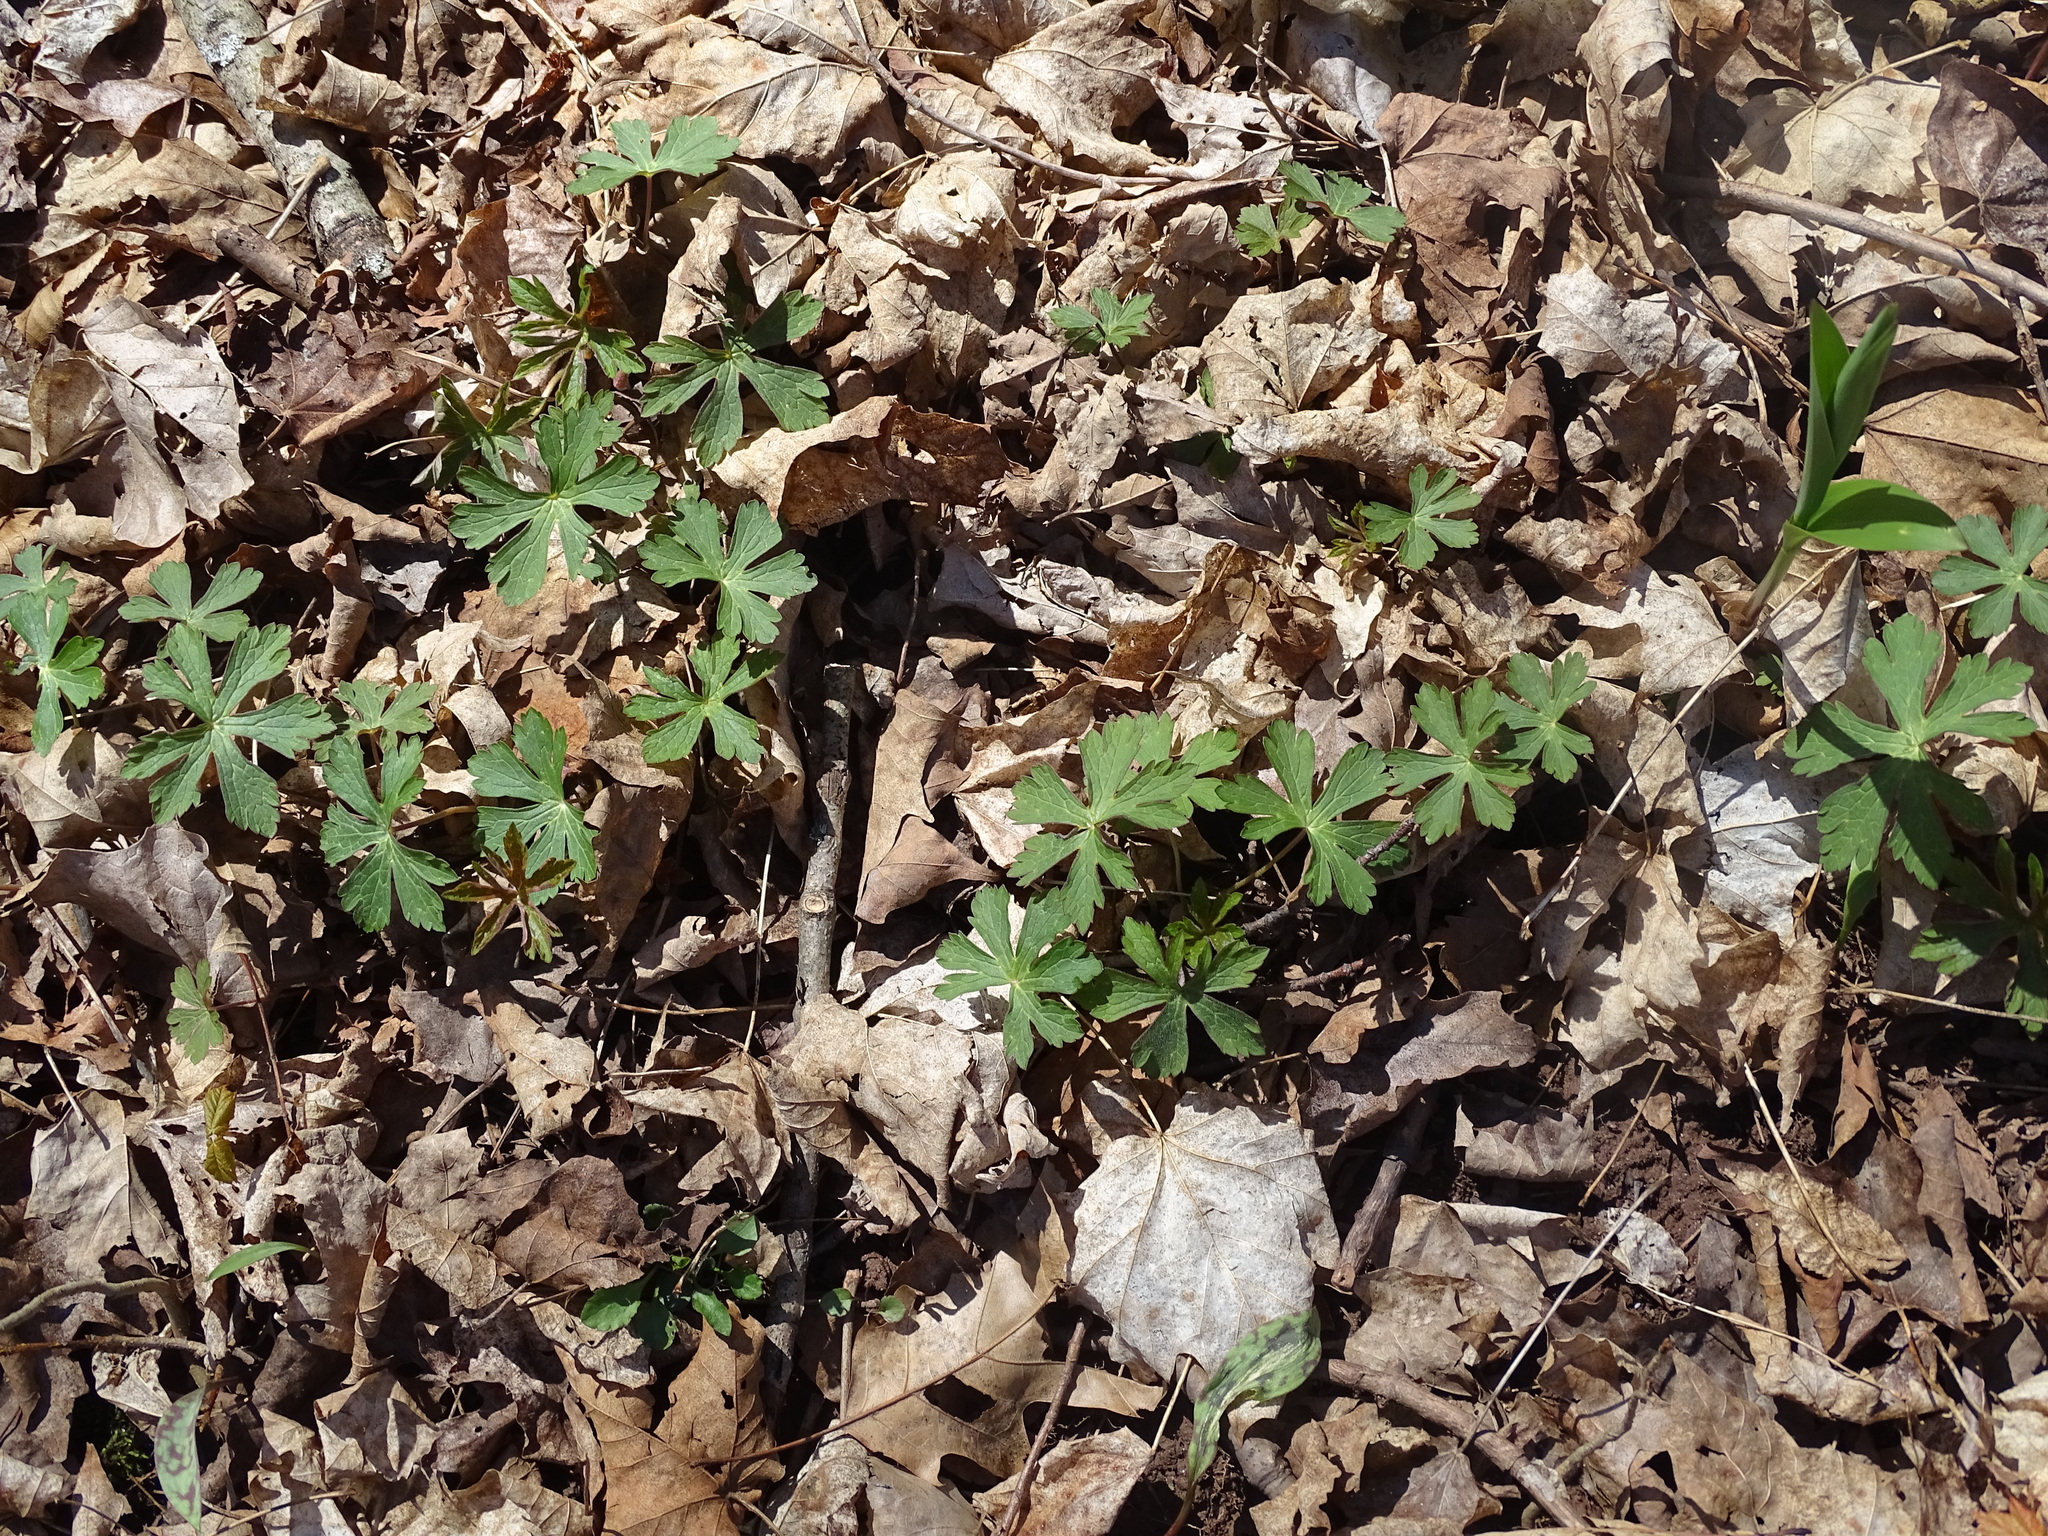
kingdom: Plantae
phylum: Tracheophyta
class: Magnoliopsida
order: Geraniales
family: Geraniaceae
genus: Geranium
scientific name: Geranium maculatum
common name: Spotted geranium
